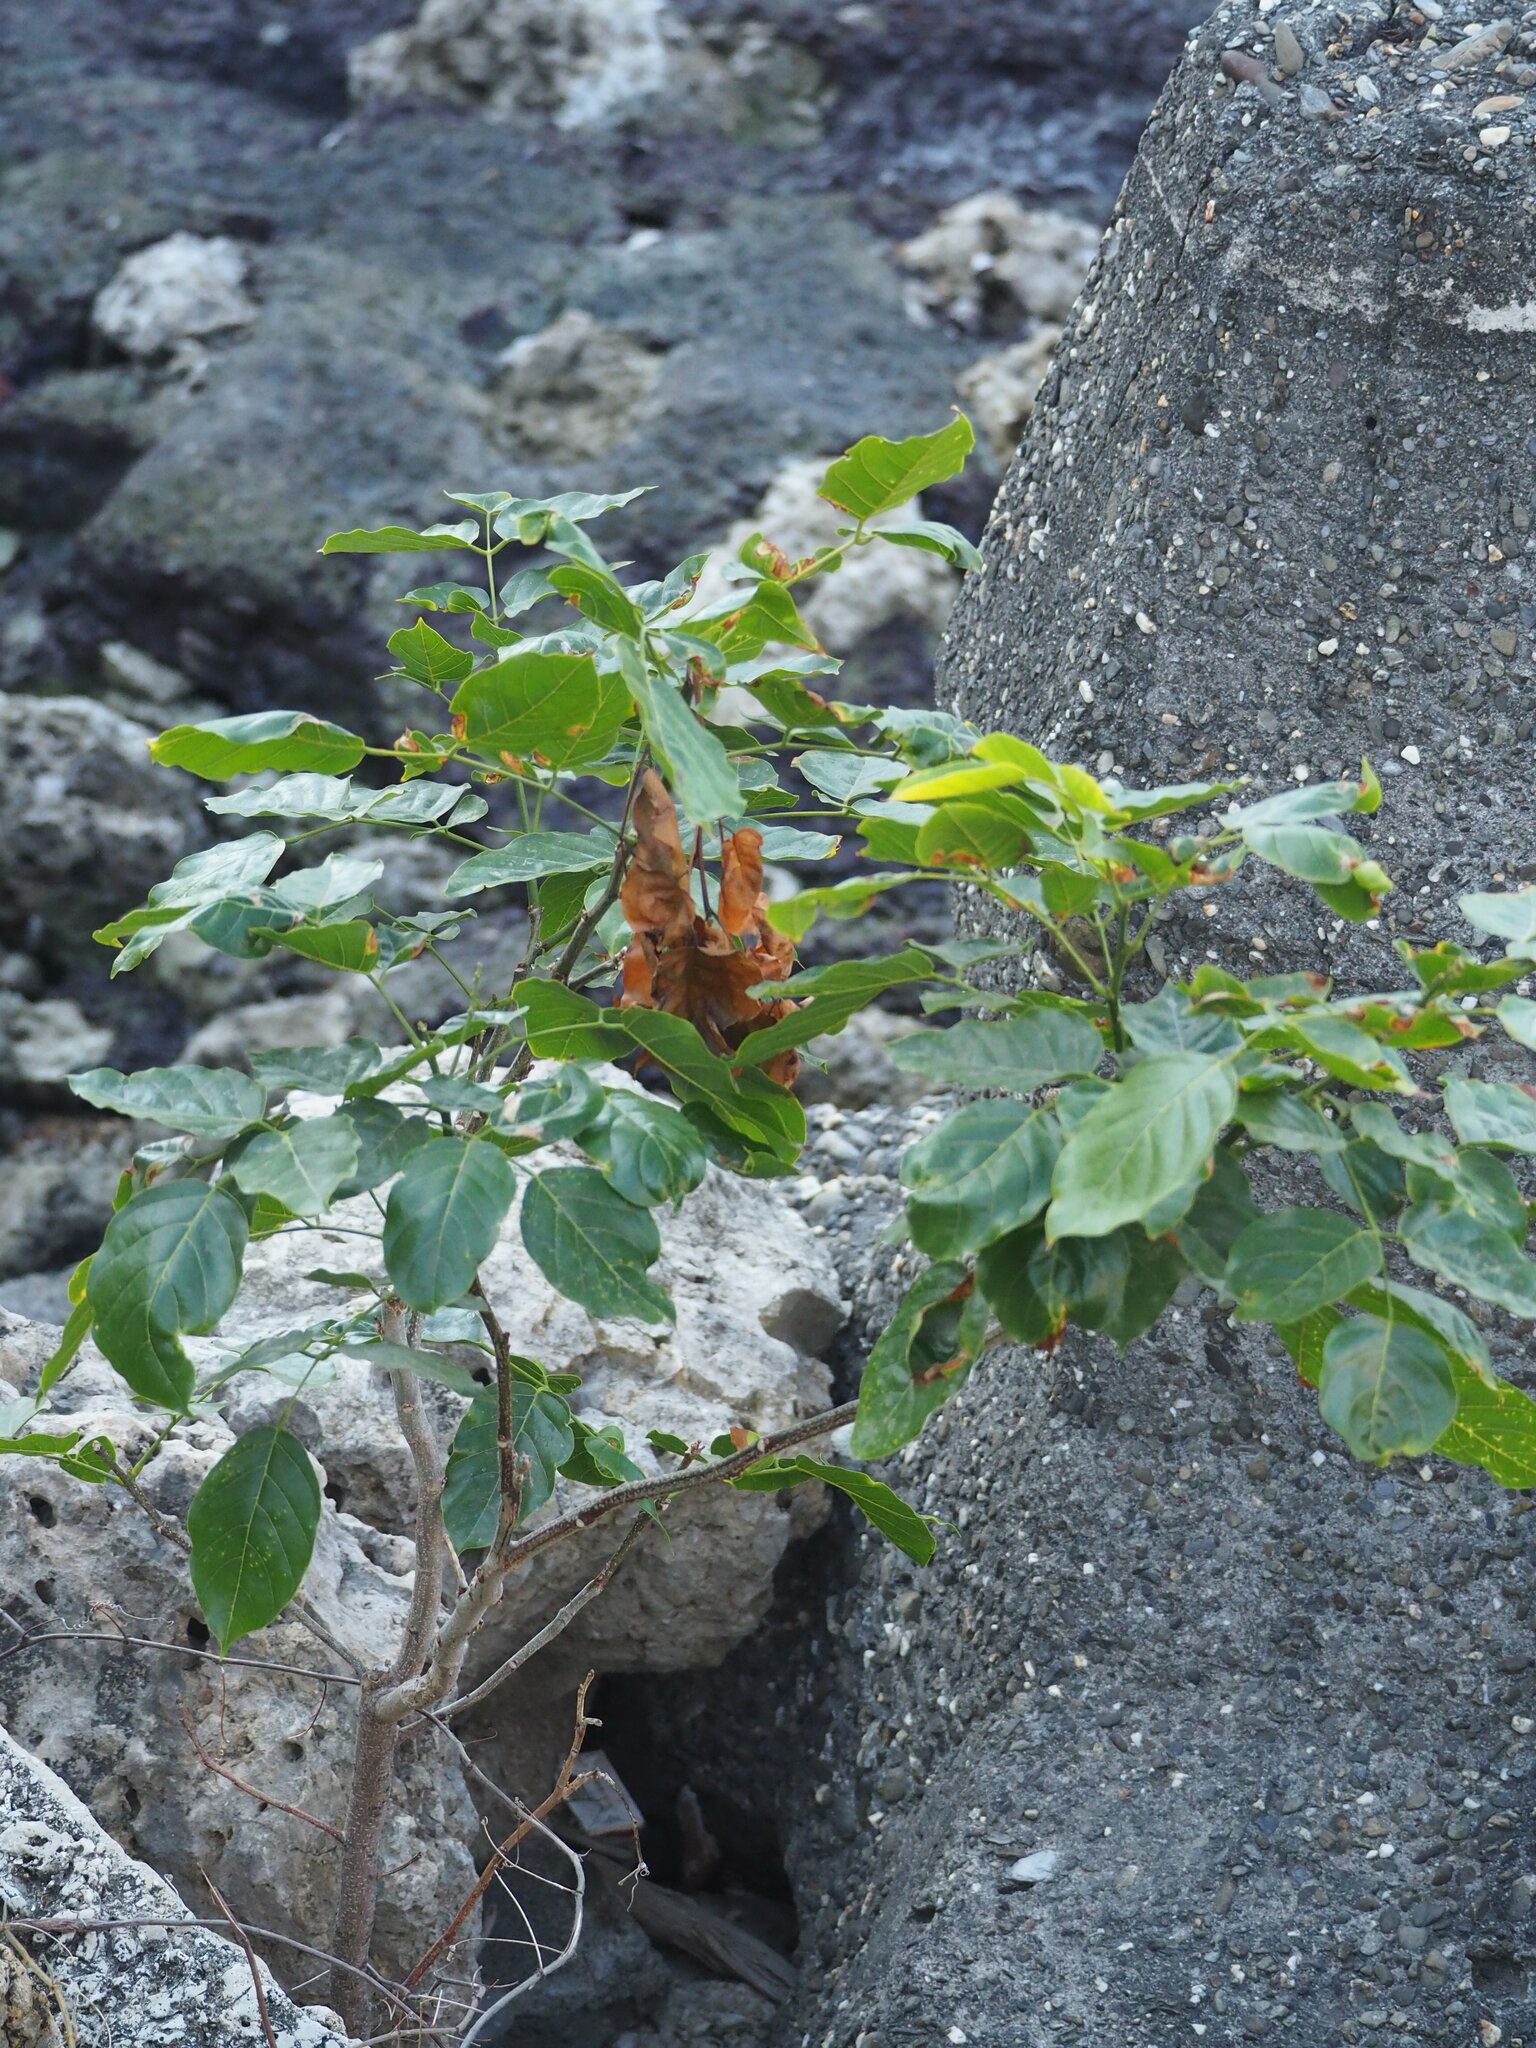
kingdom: Plantae
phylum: Tracheophyta
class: Magnoliopsida
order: Fabales
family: Fabaceae
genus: Pongamia
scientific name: Pongamia pinnata
